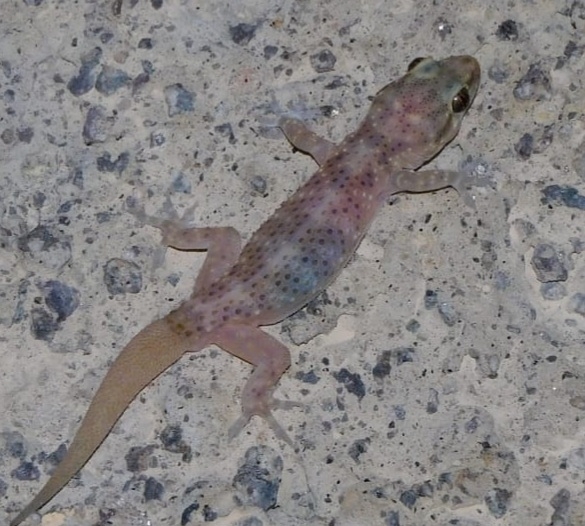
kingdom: Animalia
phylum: Chordata
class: Squamata
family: Gekkonidae
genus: Hemidactylus
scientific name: Hemidactylus turcicus
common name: Turkish gecko
